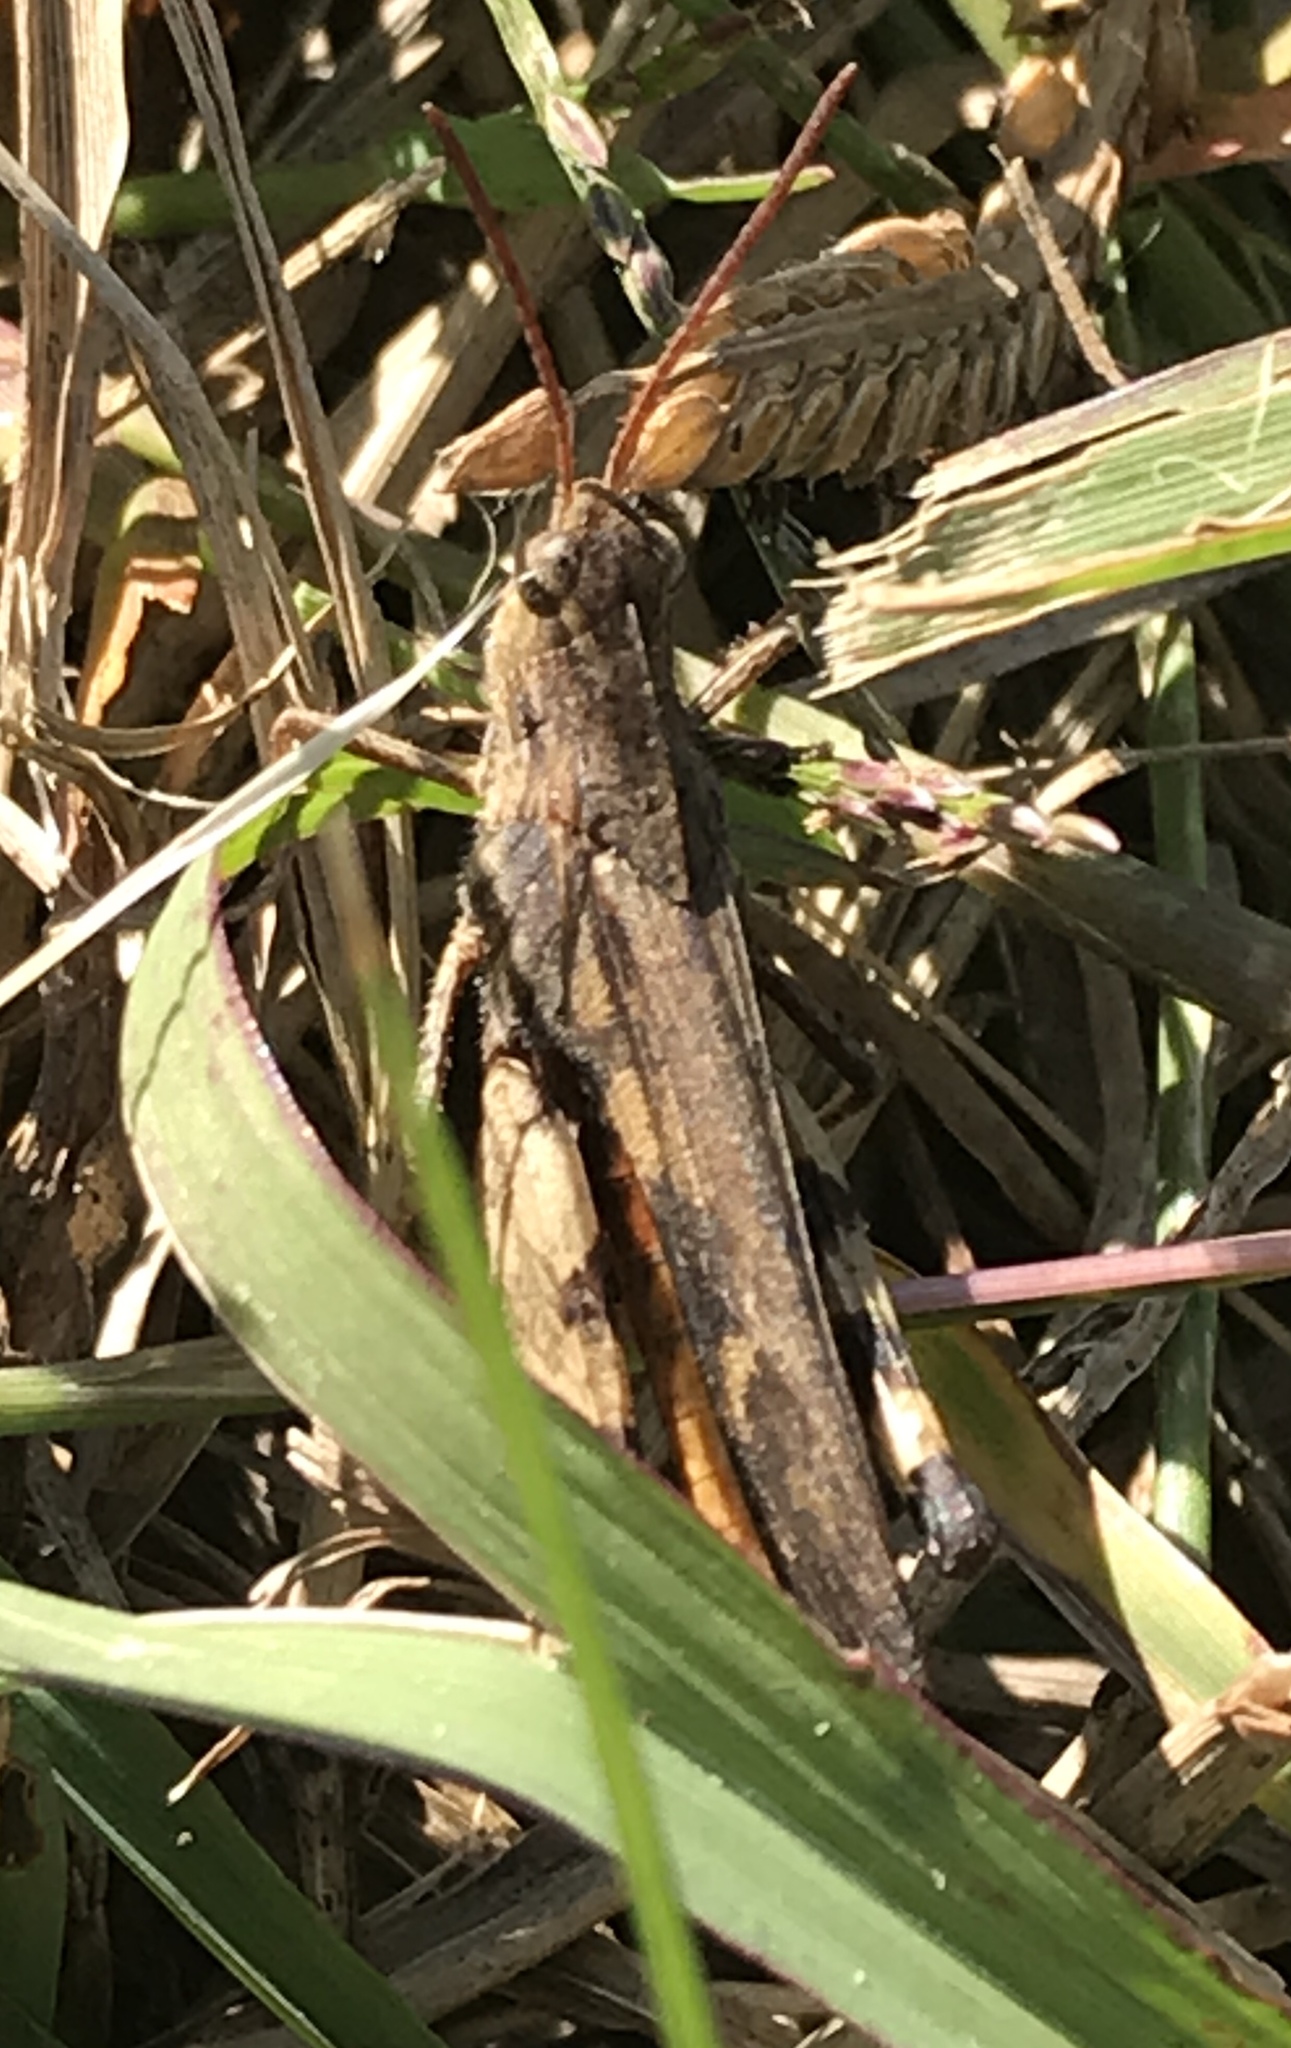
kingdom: Animalia
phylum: Arthropoda
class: Insecta
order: Orthoptera
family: Acrididae
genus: Chortophaga
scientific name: Chortophaga viridifasciata
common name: Green-striped grasshopper
